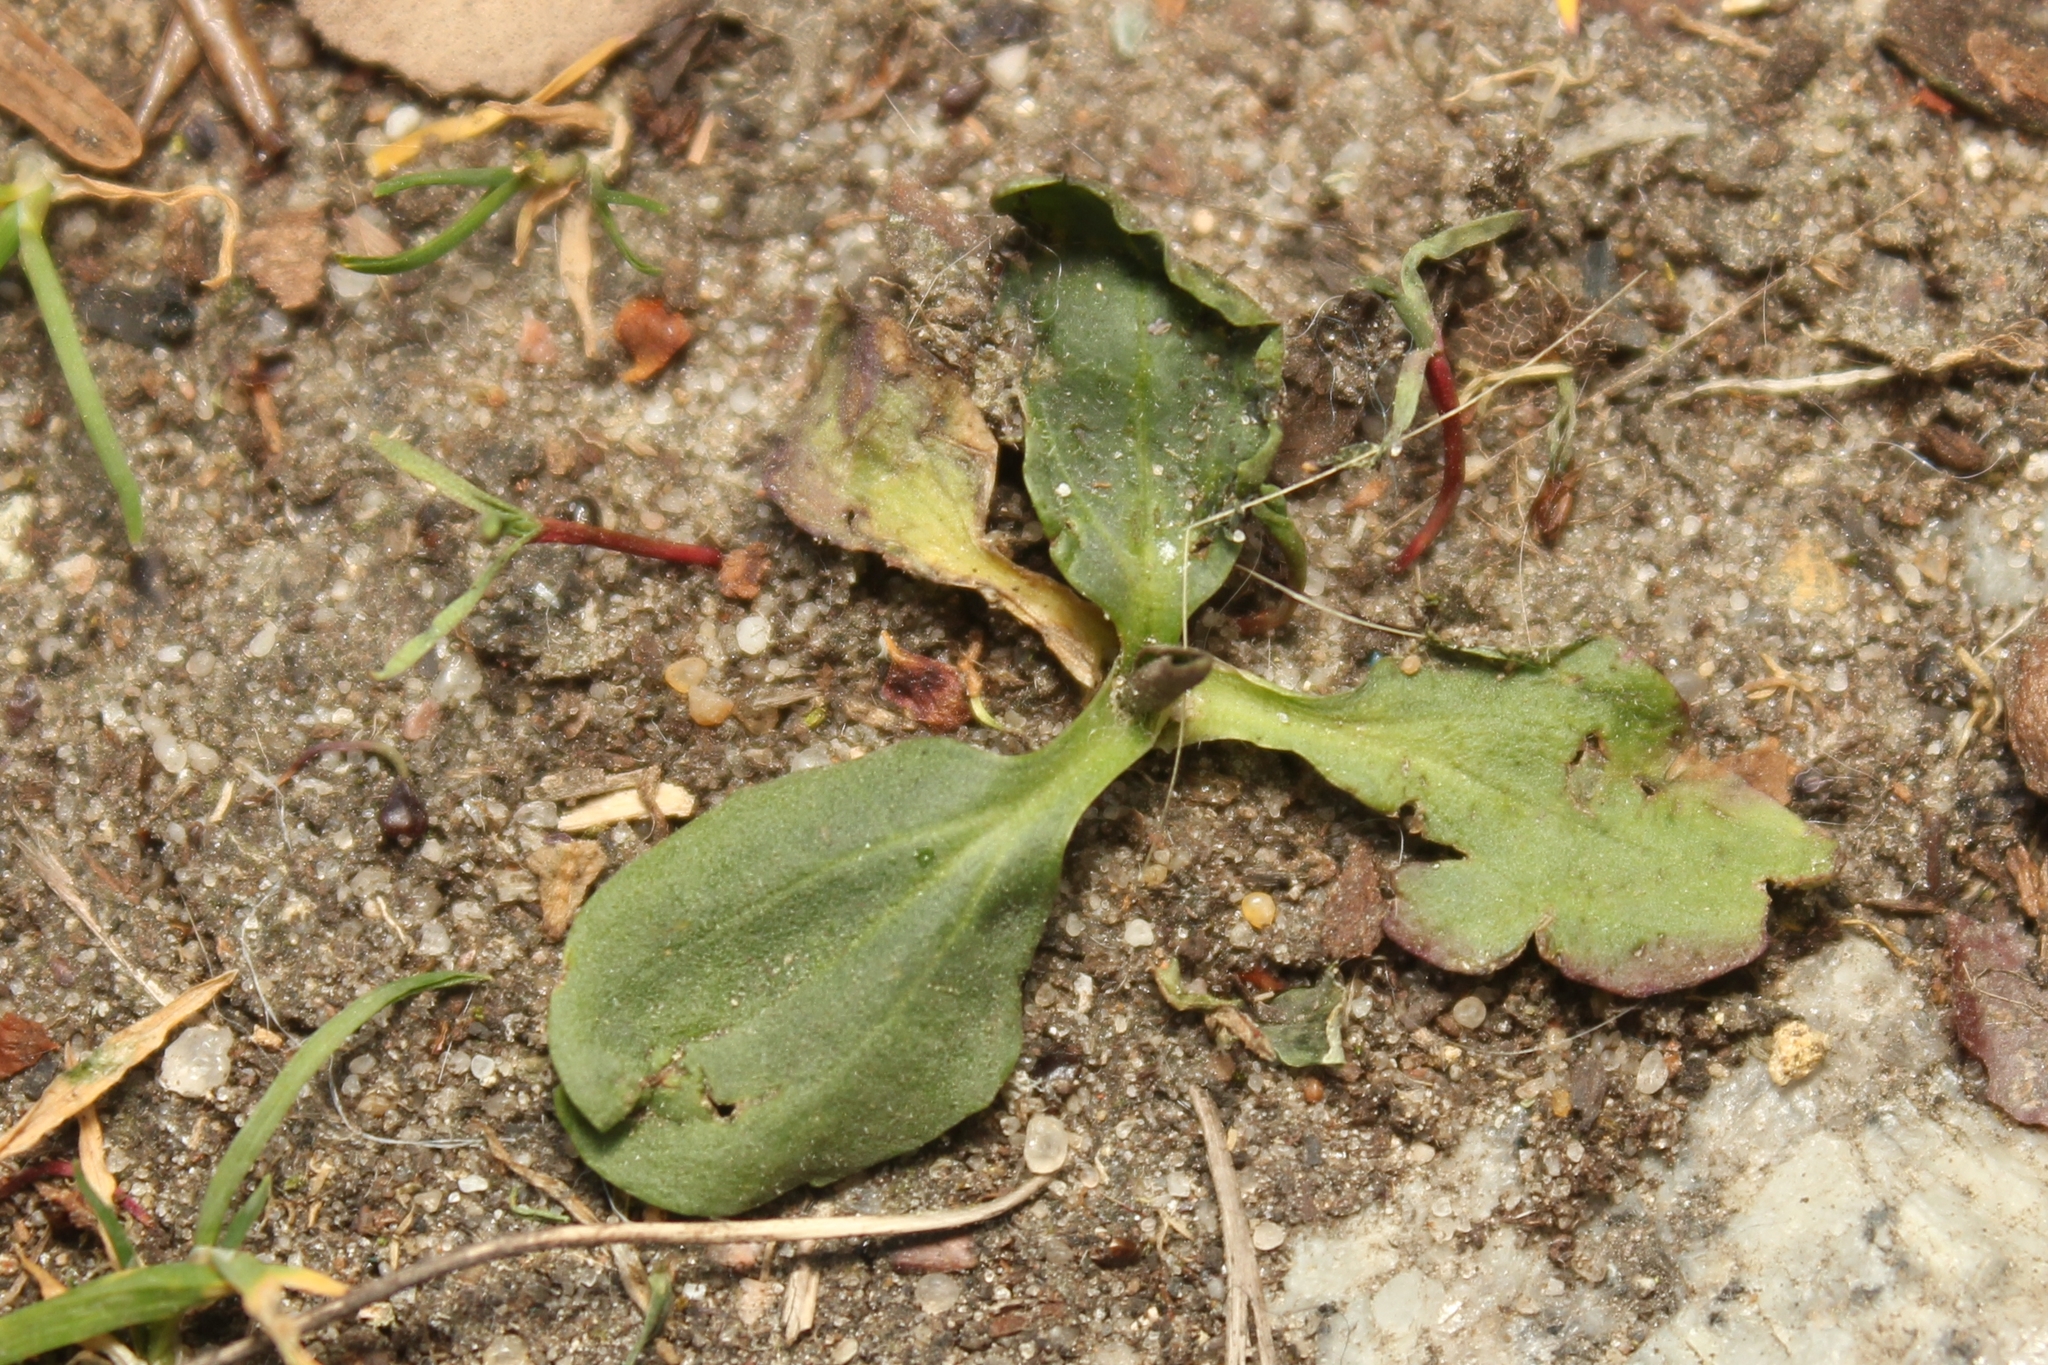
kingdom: Plantae
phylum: Tracheophyta
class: Magnoliopsida
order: Lamiales
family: Plantaginaceae
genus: Plantago
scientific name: Plantago major
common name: Common plantain
